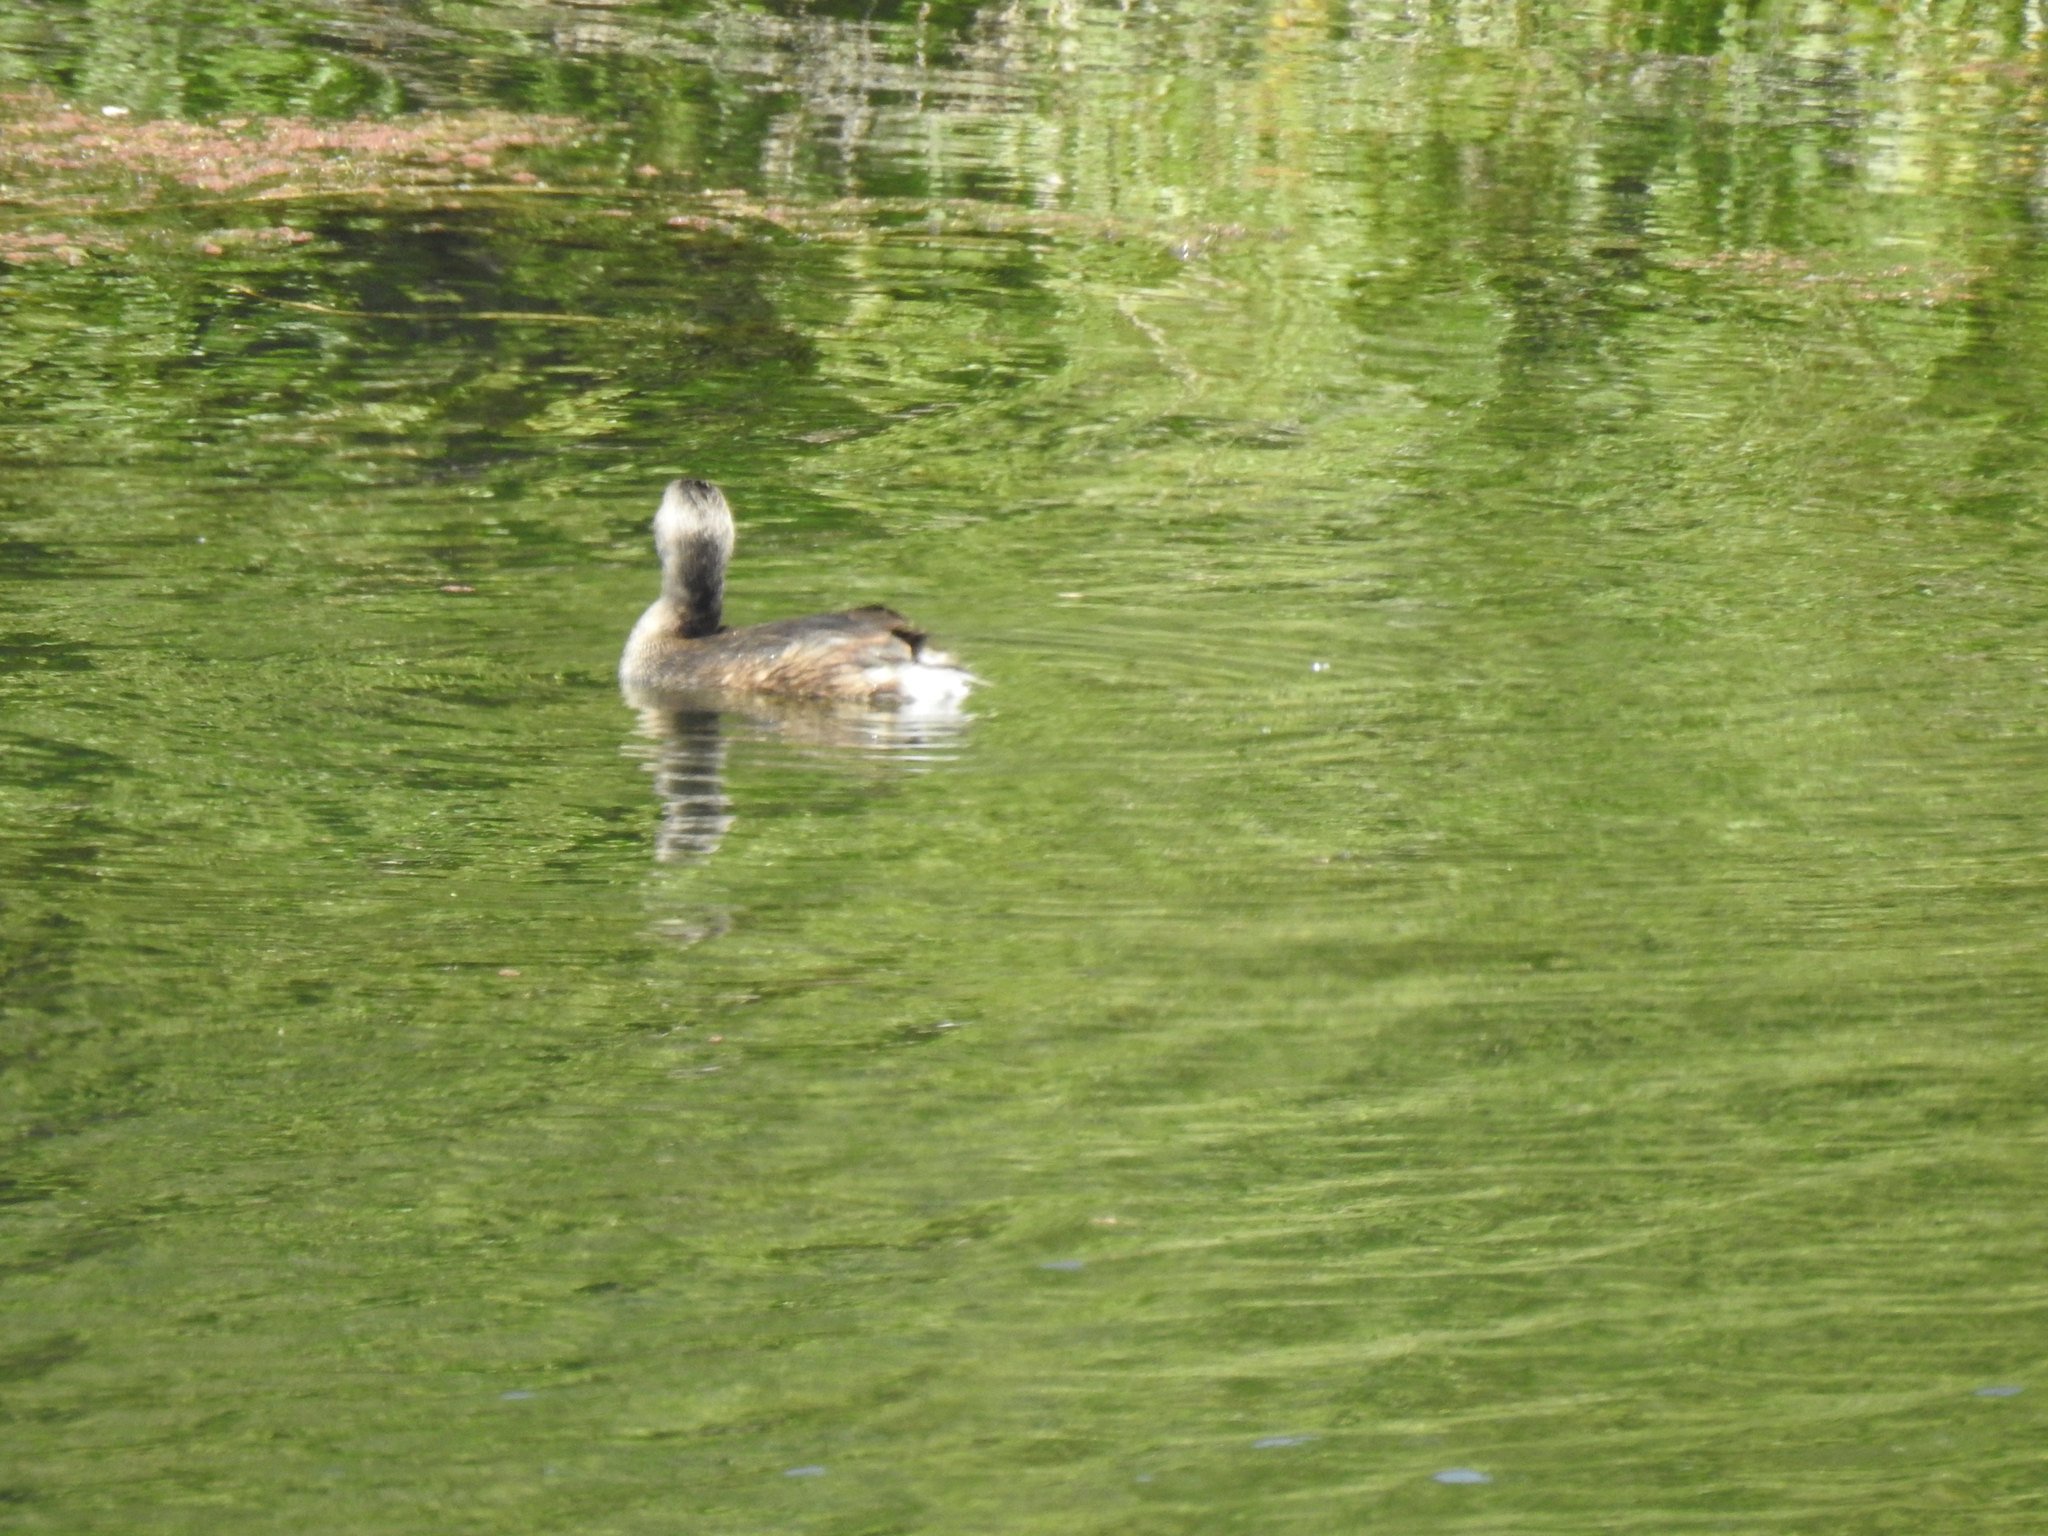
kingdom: Animalia
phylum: Chordata
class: Aves
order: Podicipediformes
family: Podicipedidae
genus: Podilymbus
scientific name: Podilymbus podiceps
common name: Pied-billed grebe
